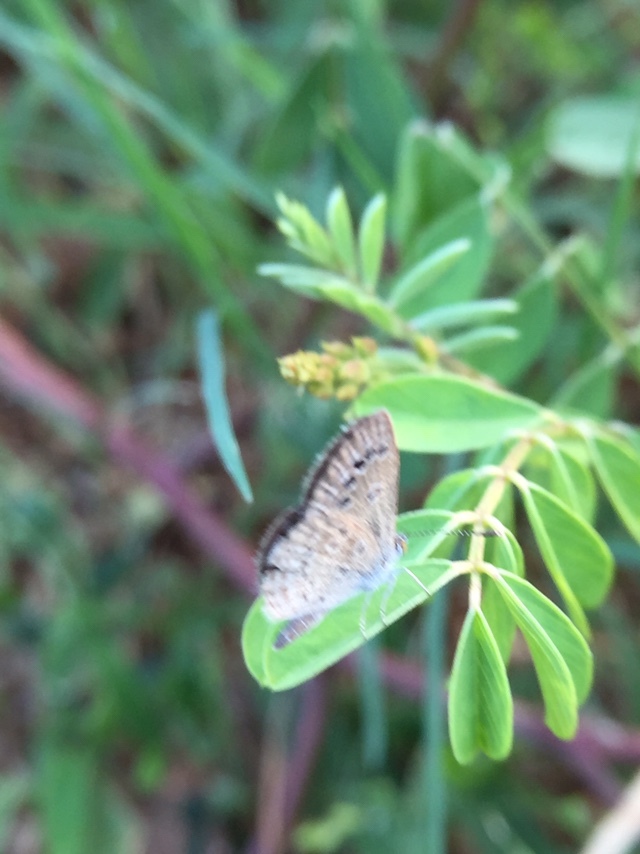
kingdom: Animalia
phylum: Arthropoda
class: Insecta
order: Lepidoptera
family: Lycaenidae
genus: Zizina
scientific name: Zizina otis
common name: Lesser grass blue
